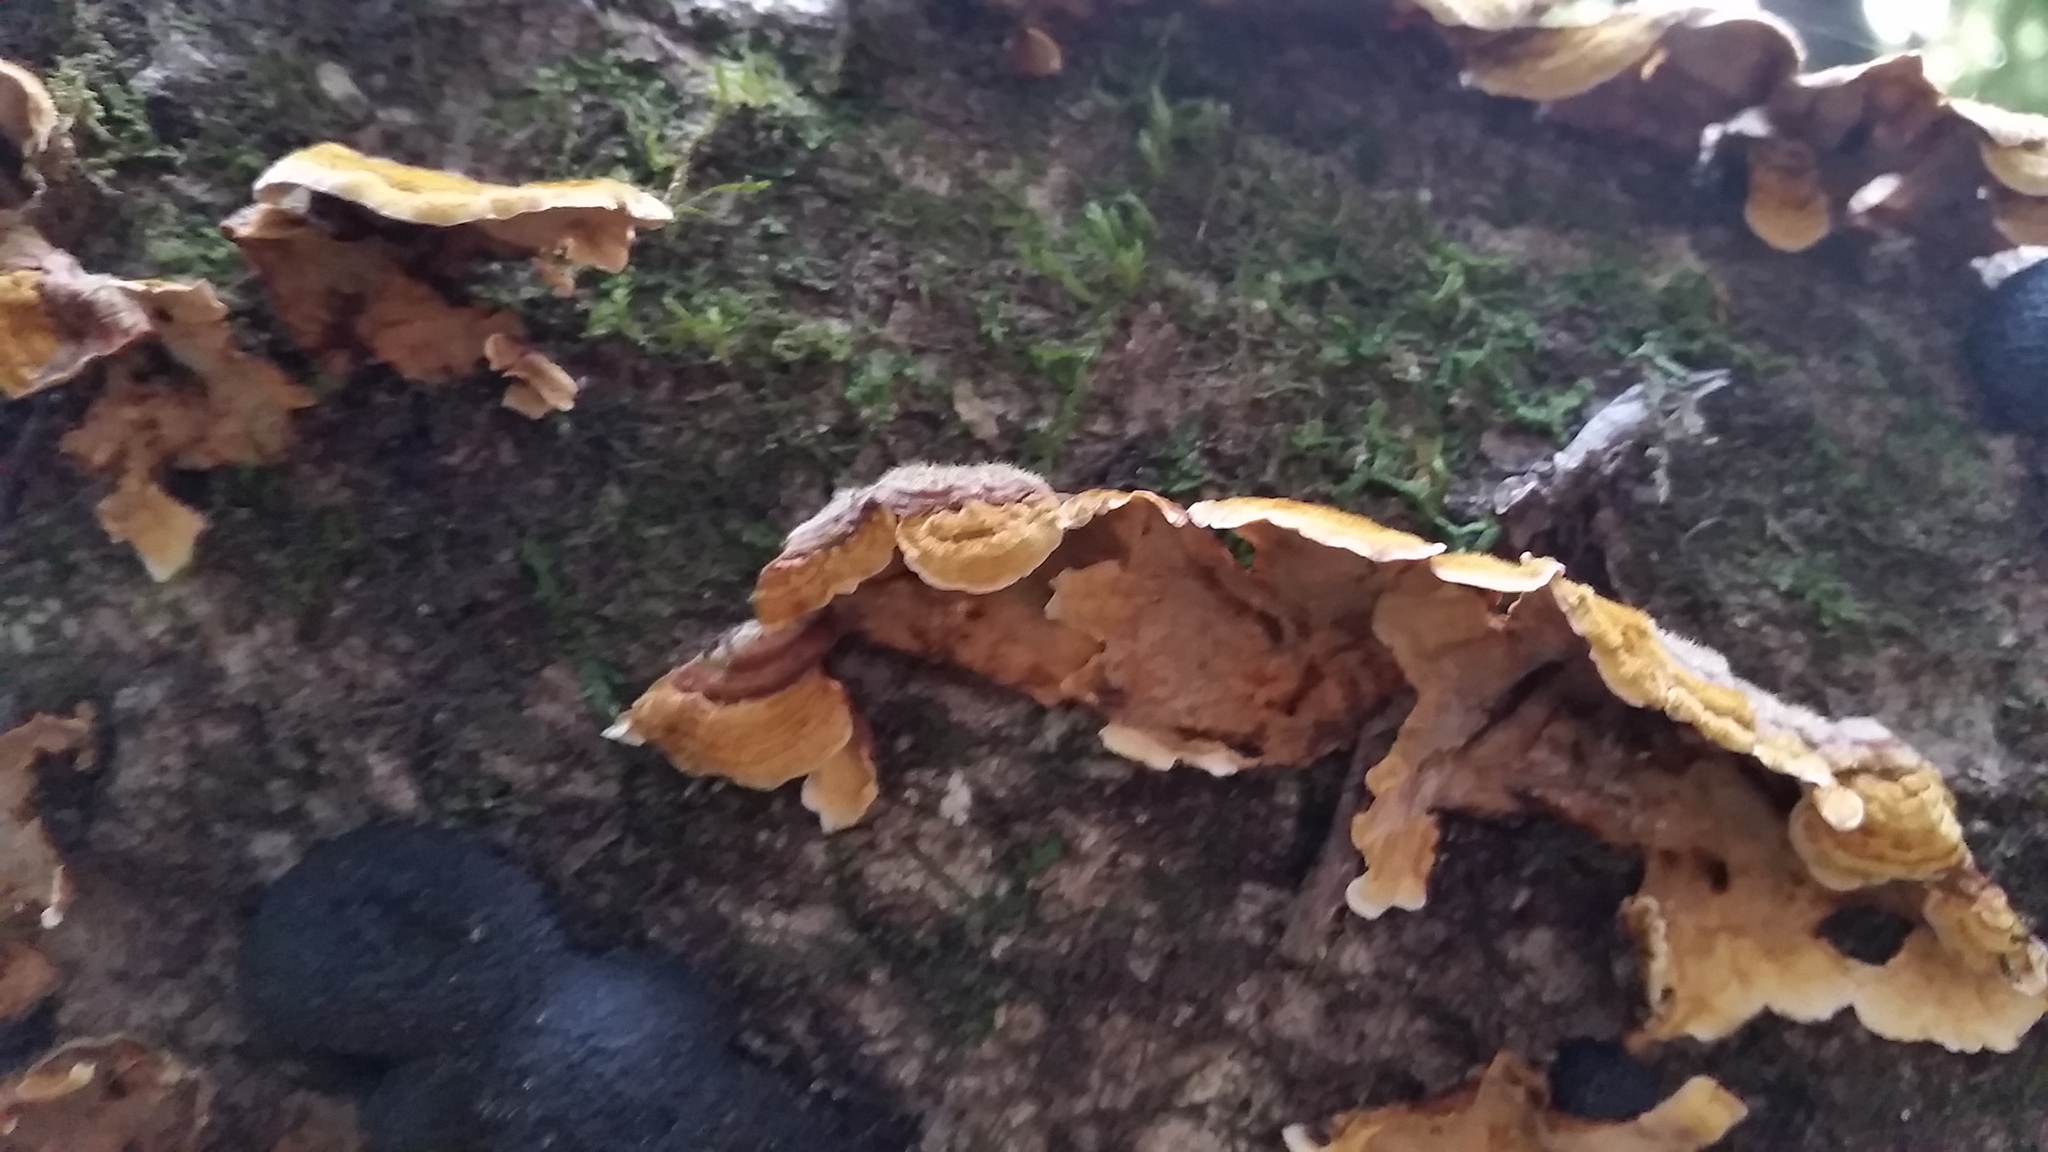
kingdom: Fungi
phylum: Basidiomycota
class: Agaricomycetes
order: Russulales
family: Stereaceae
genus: Stereum
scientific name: Stereum hirsutum
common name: Hairy curtain crust
